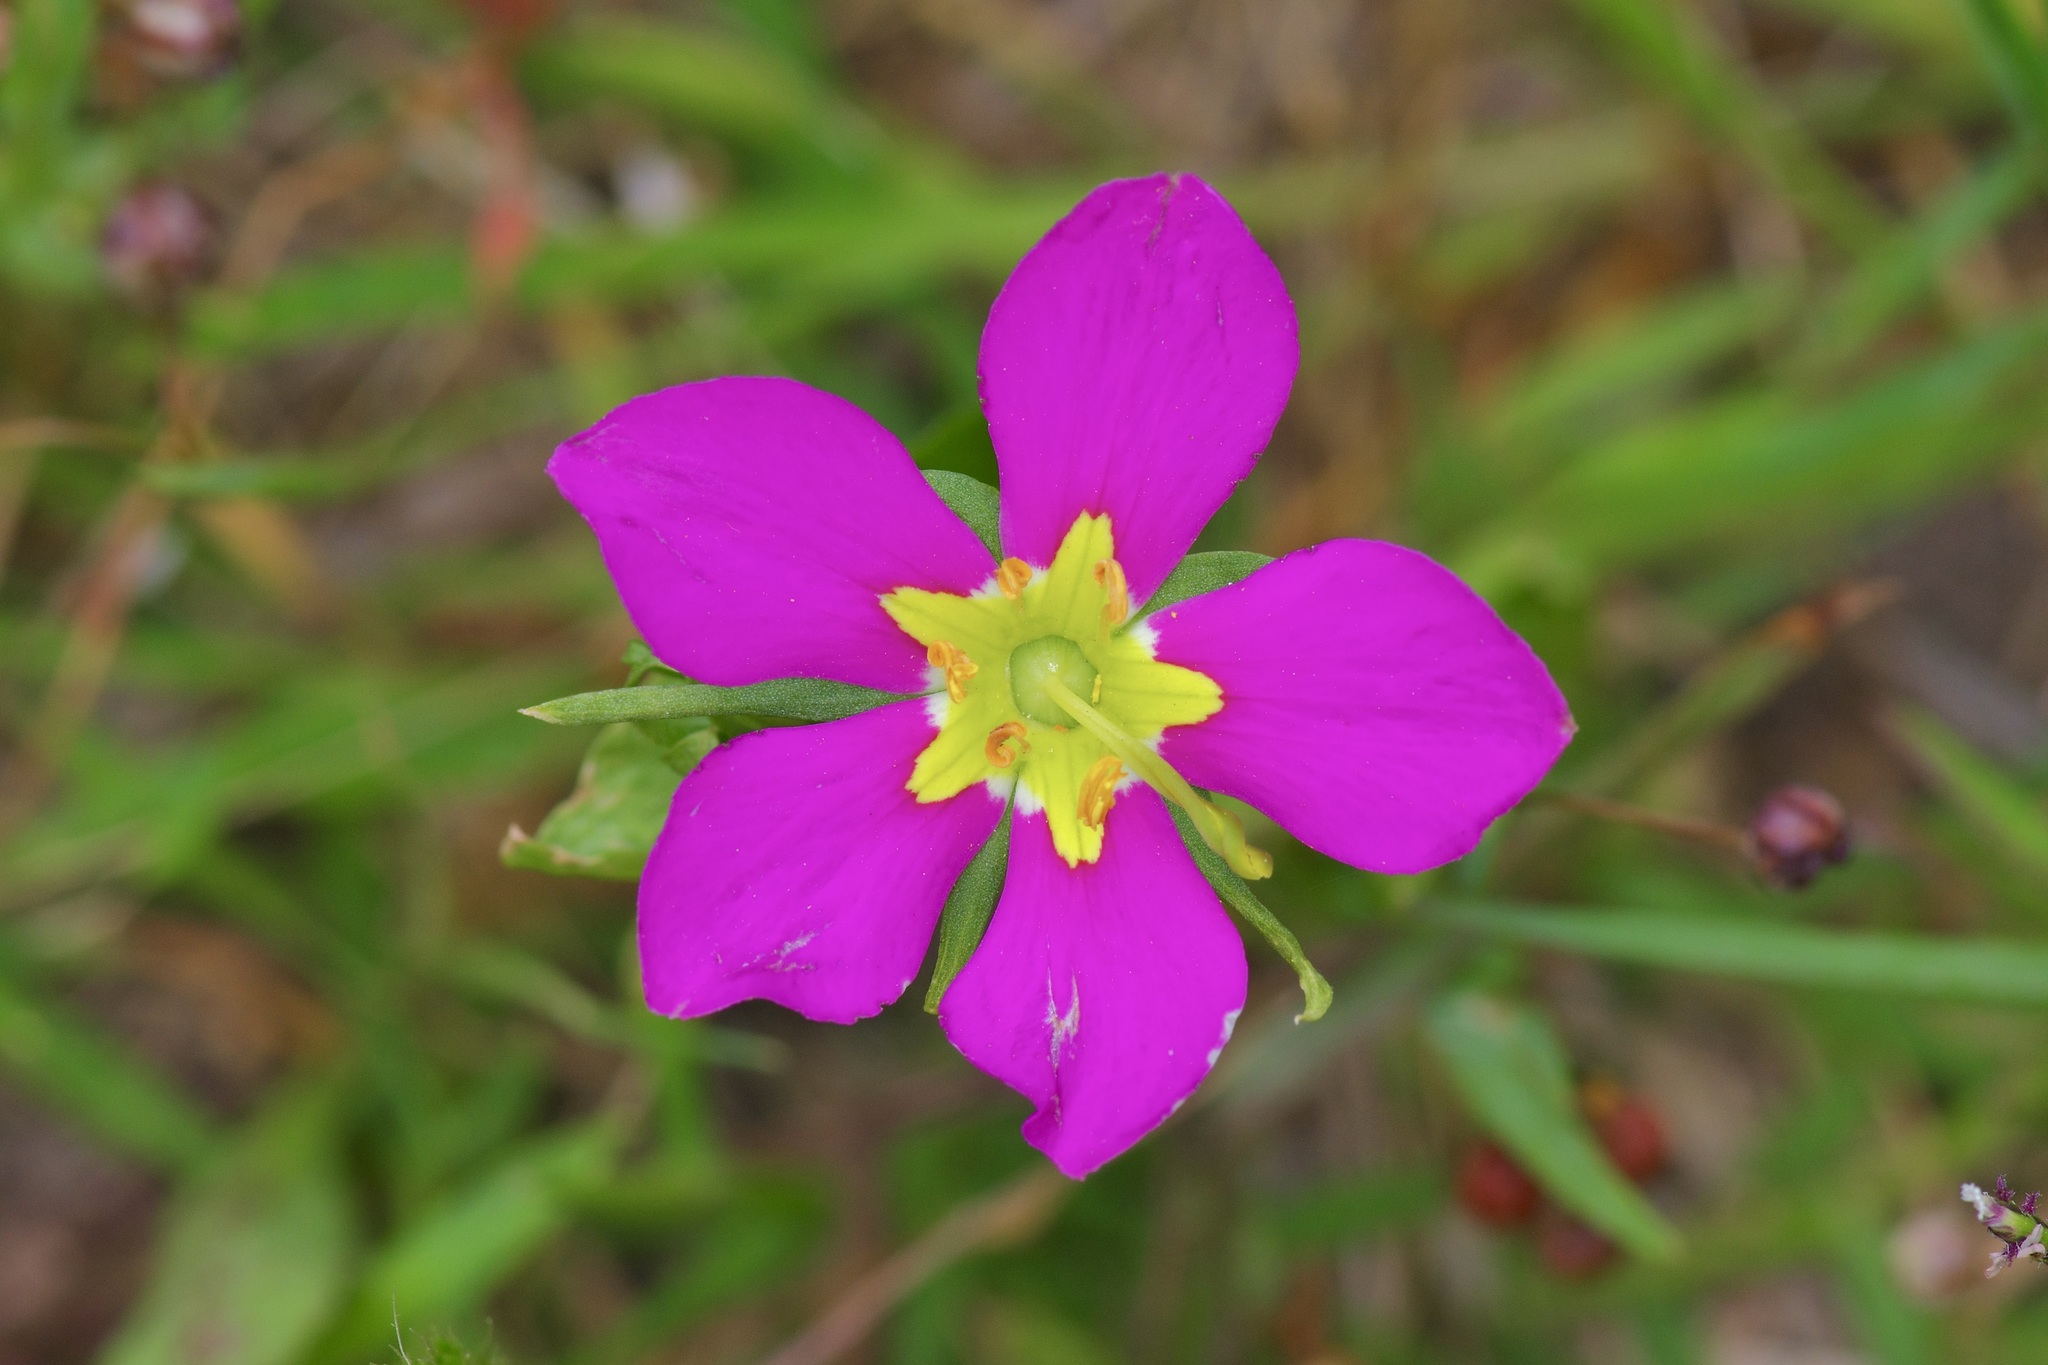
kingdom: Plantae
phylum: Tracheophyta
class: Magnoliopsida
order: Gentianales
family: Gentianaceae
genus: Sabatia
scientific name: Sabatia campestris
